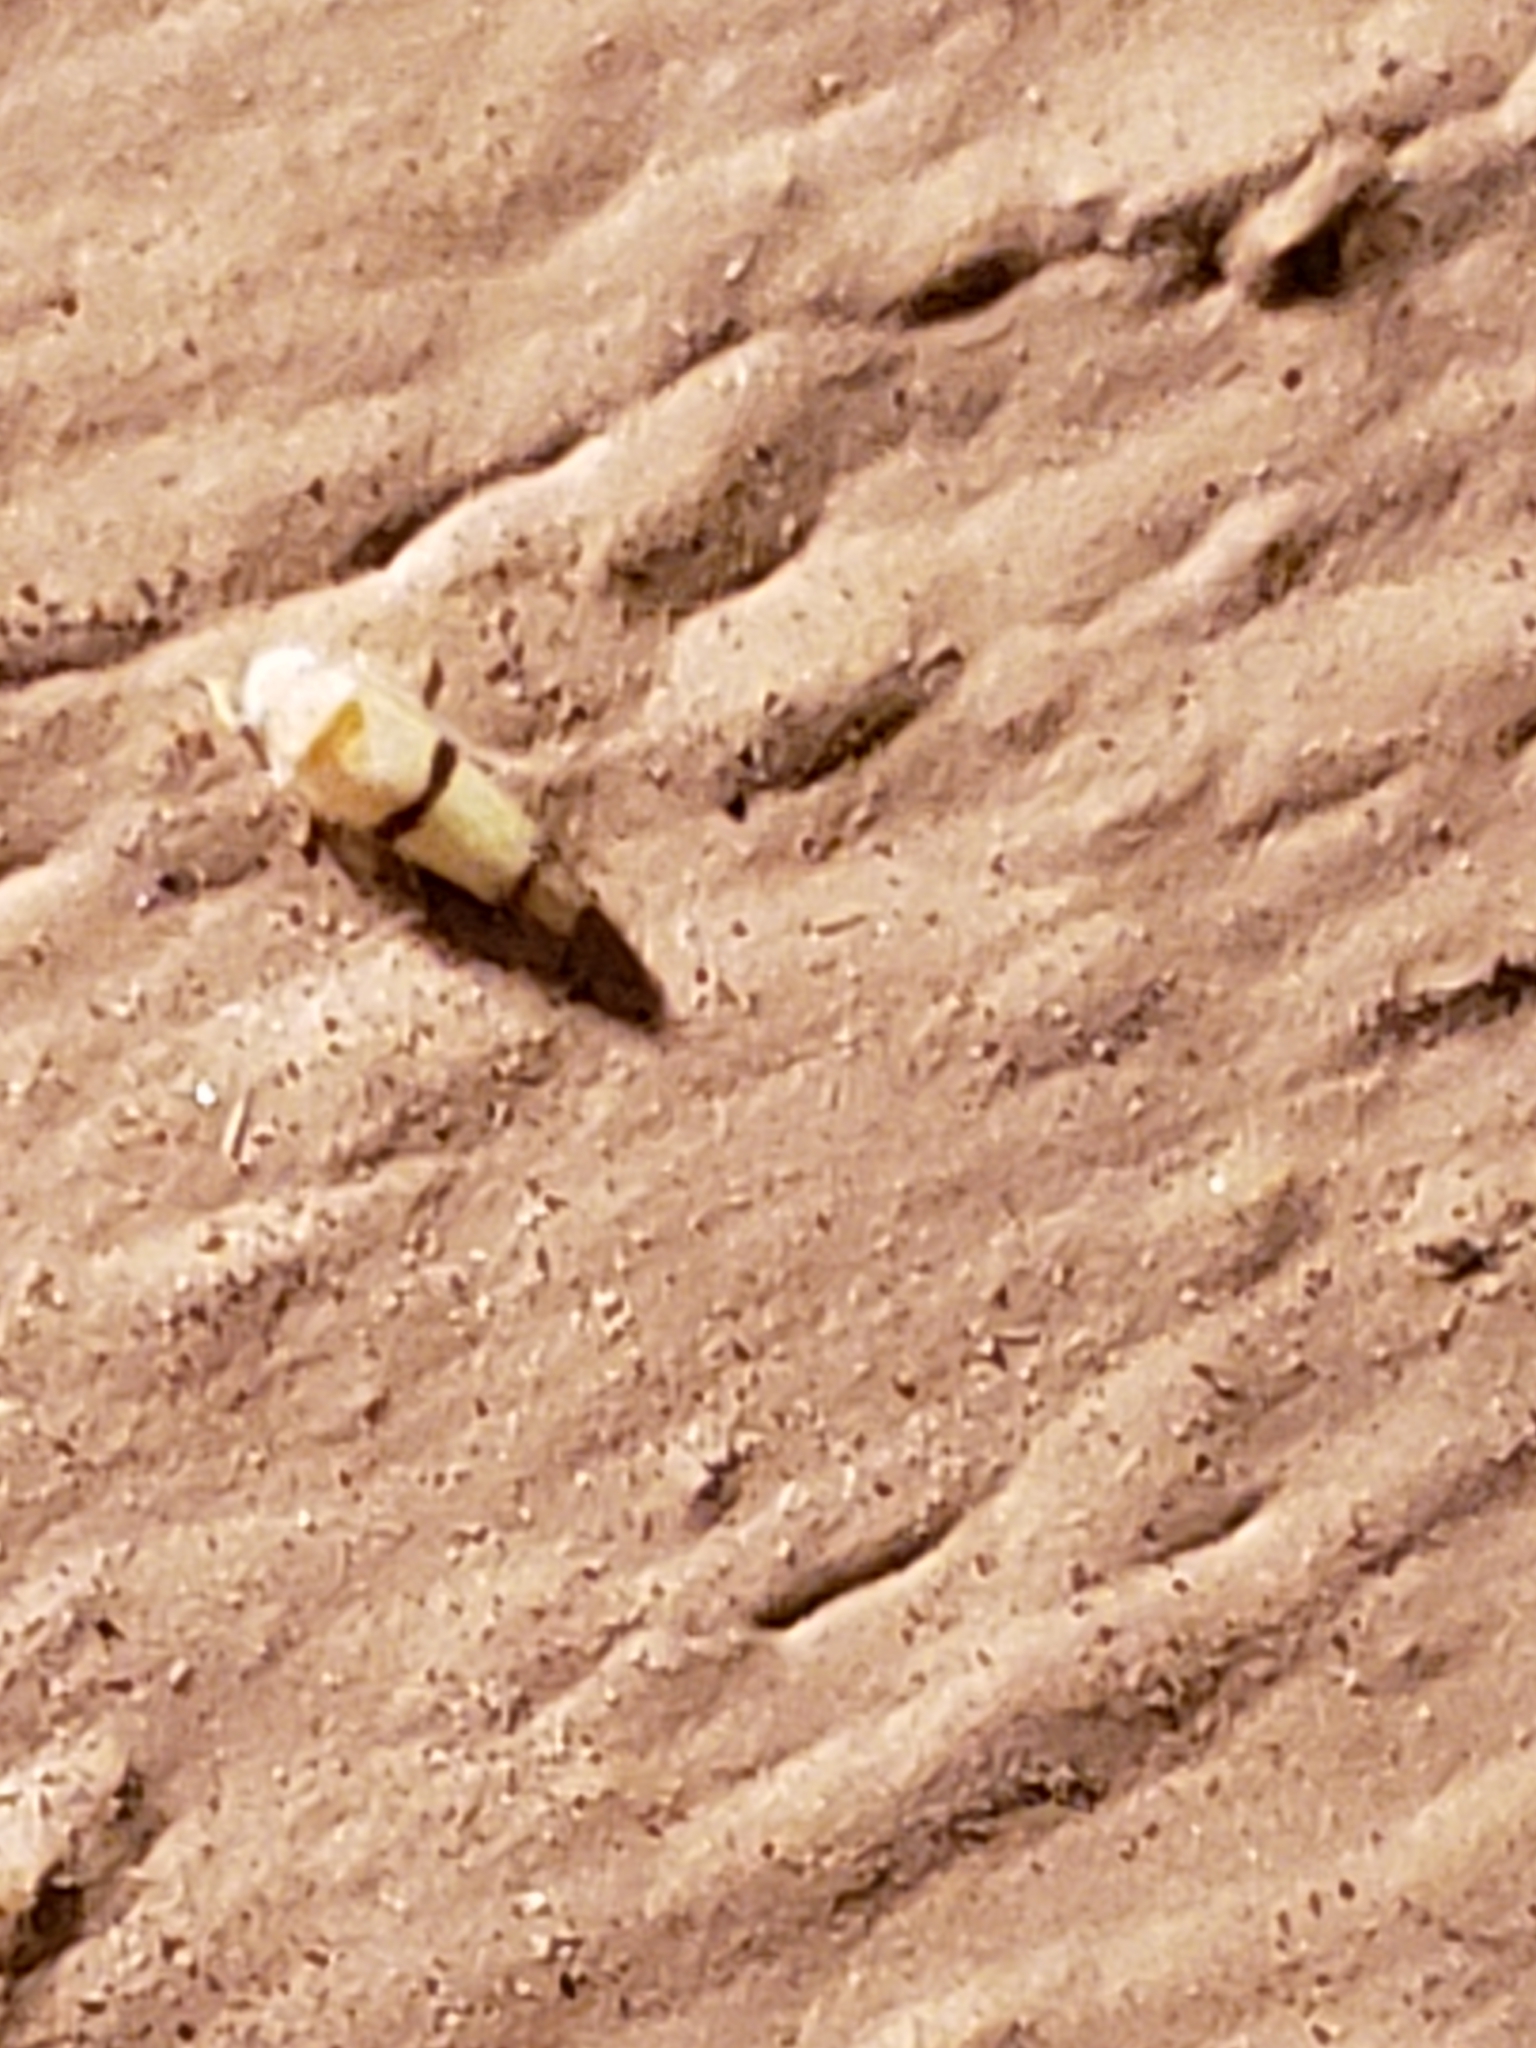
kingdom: Animalia
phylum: Arthropoda
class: Insecta
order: Hemiptera
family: Cicadellidae
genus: Empoa
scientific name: Empoa gillettei
